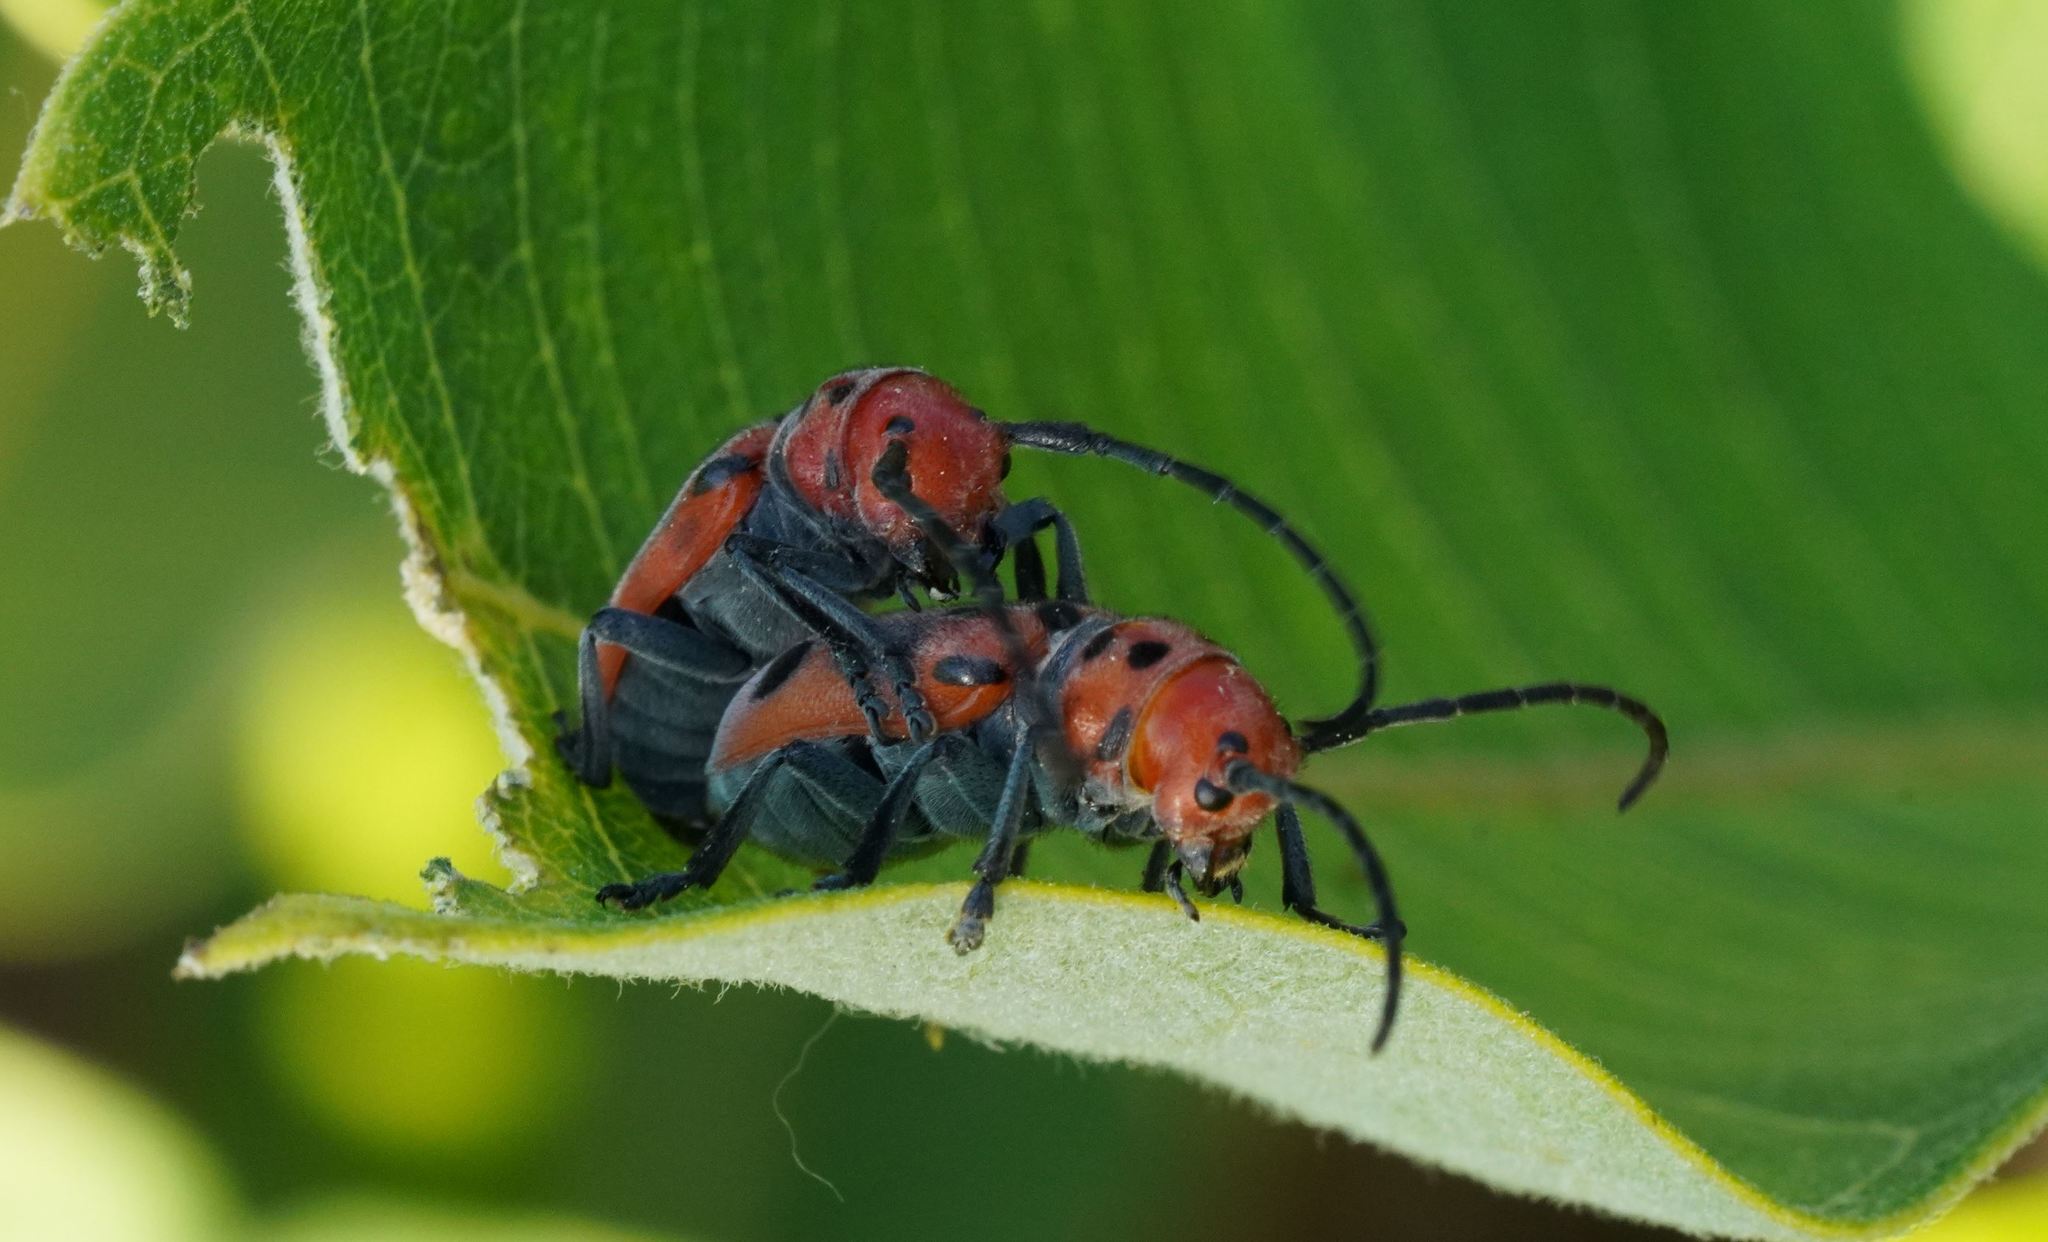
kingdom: Animalia
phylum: Arthropoda
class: Insecta
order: Coleoptera
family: Cerambycidae
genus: Tetraopes
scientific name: Tetraopes tetrophthalmus
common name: Red milkweed beetle
